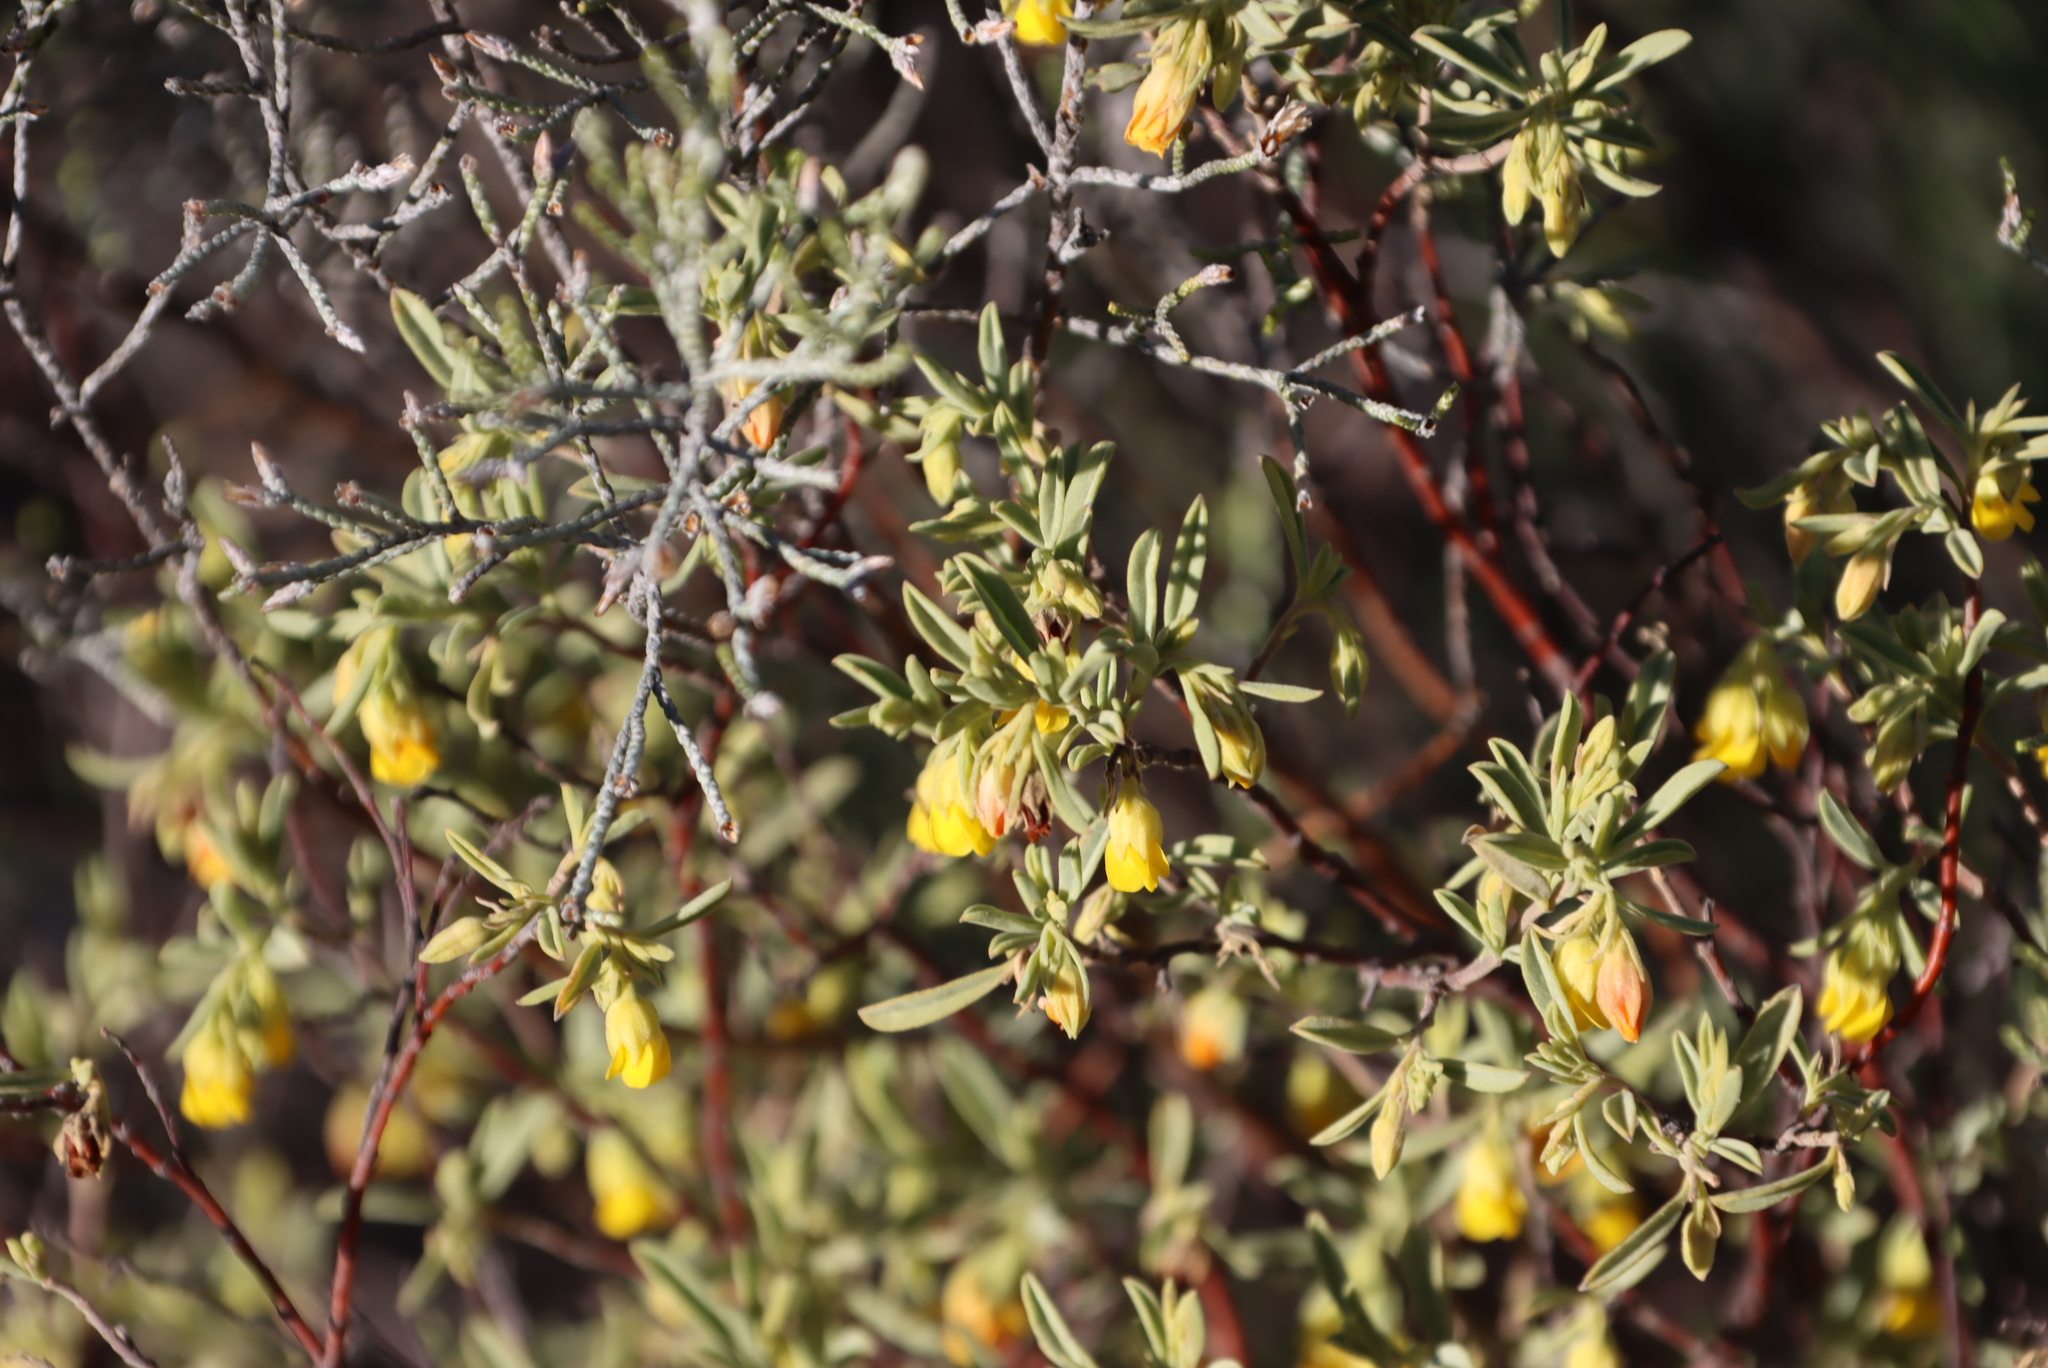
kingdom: Plantae
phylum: Tracheophyta
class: Magnoliopsida
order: Malvales
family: Malvaceae
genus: Hermannia
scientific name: Hermannia velutina
